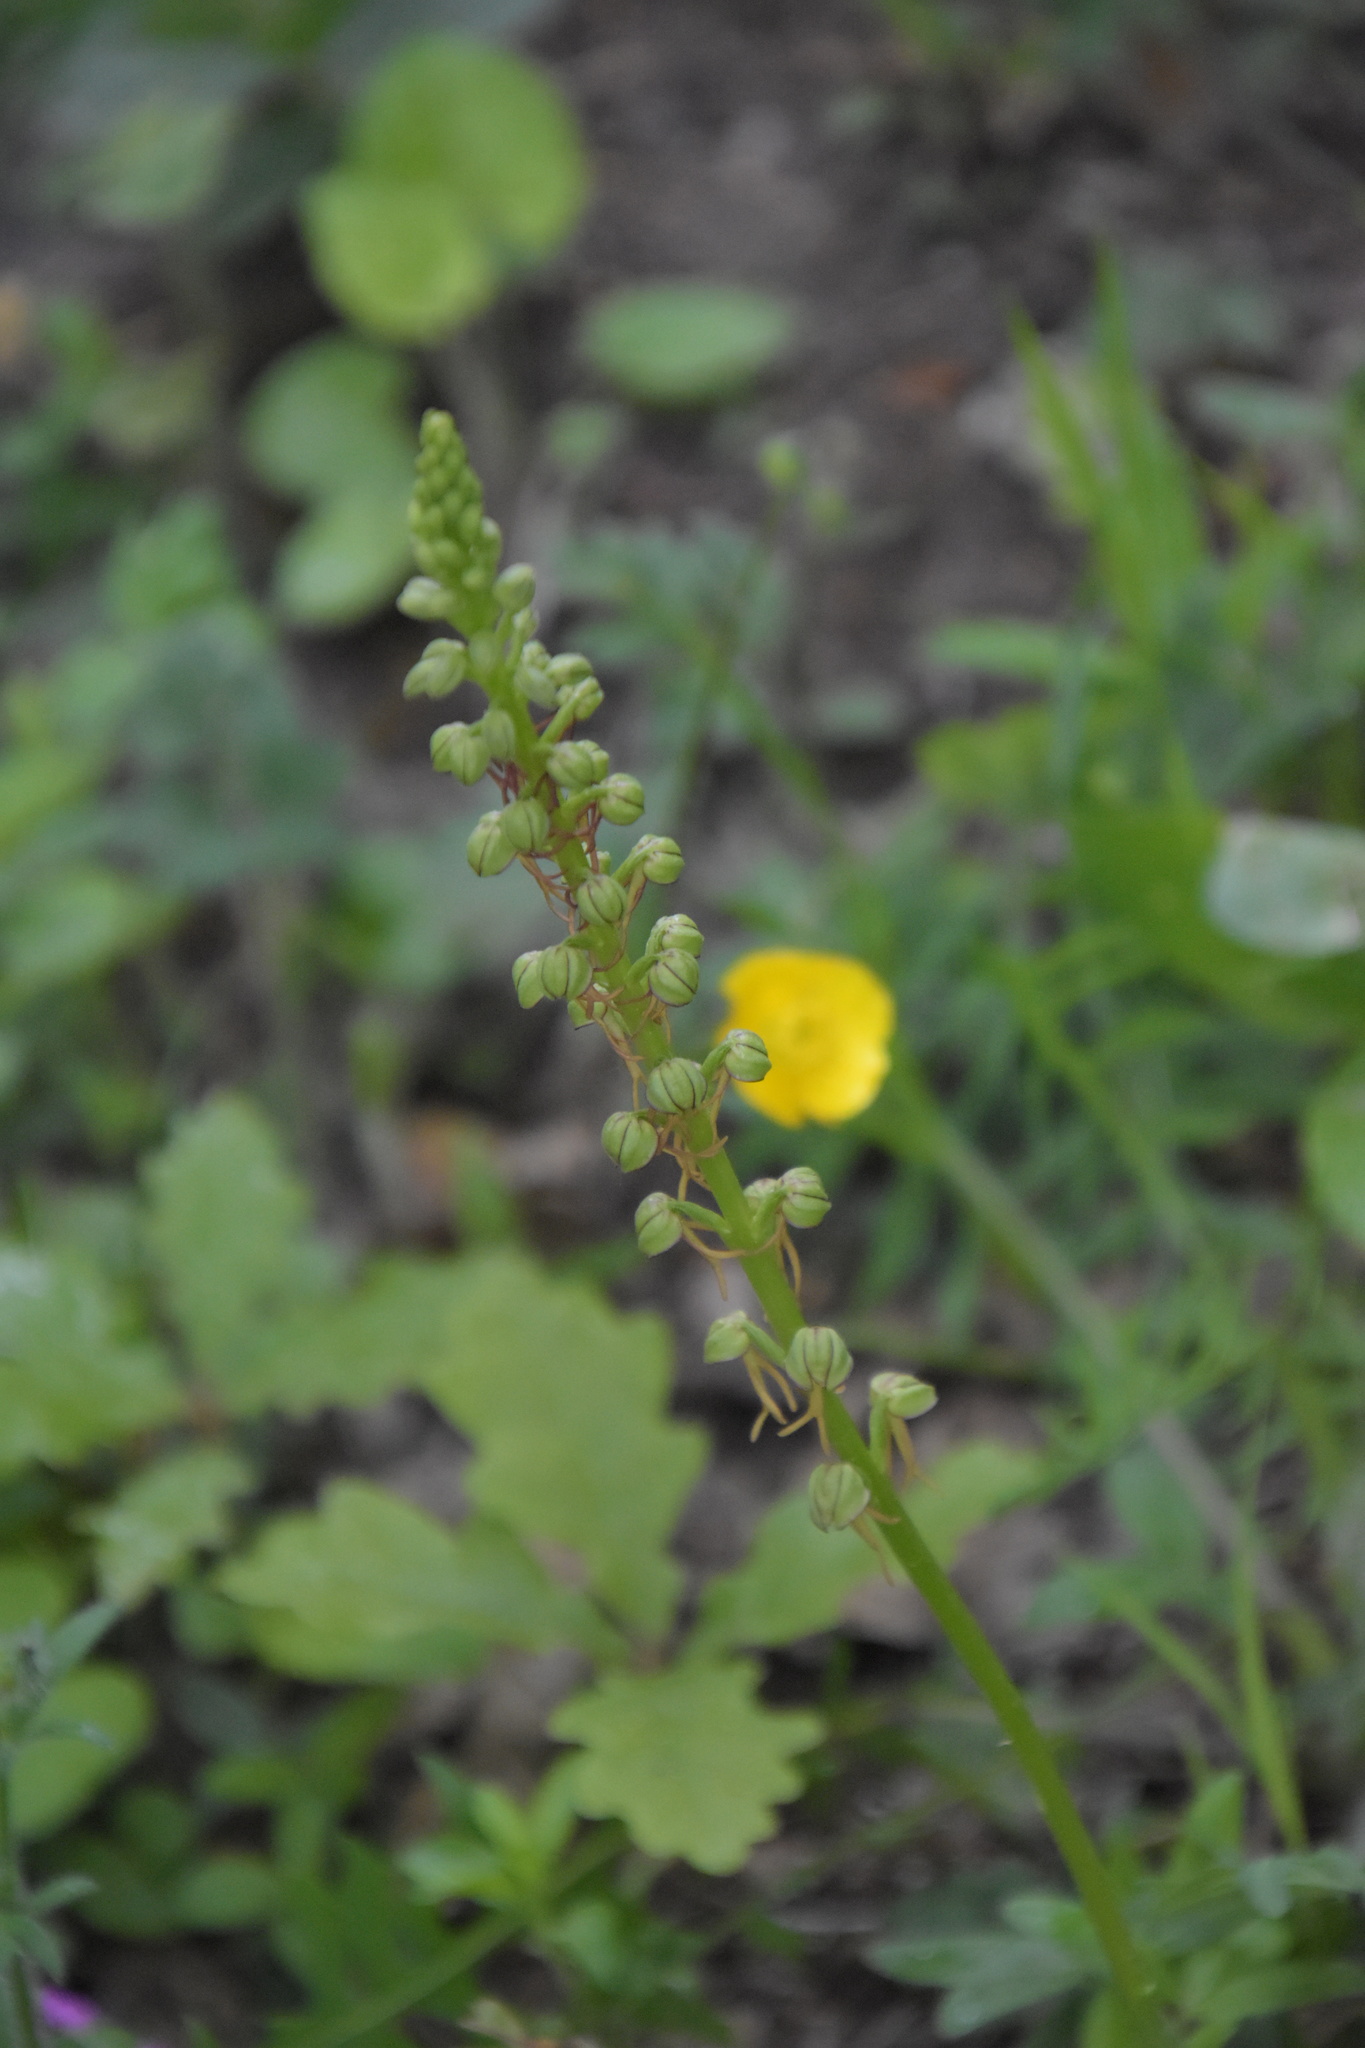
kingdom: Plantae
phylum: Tracheophyta
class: Liliopsida
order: Asparagales
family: Orchidaceae
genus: Orchis
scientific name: Orchis anthropophora
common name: Man orchid
